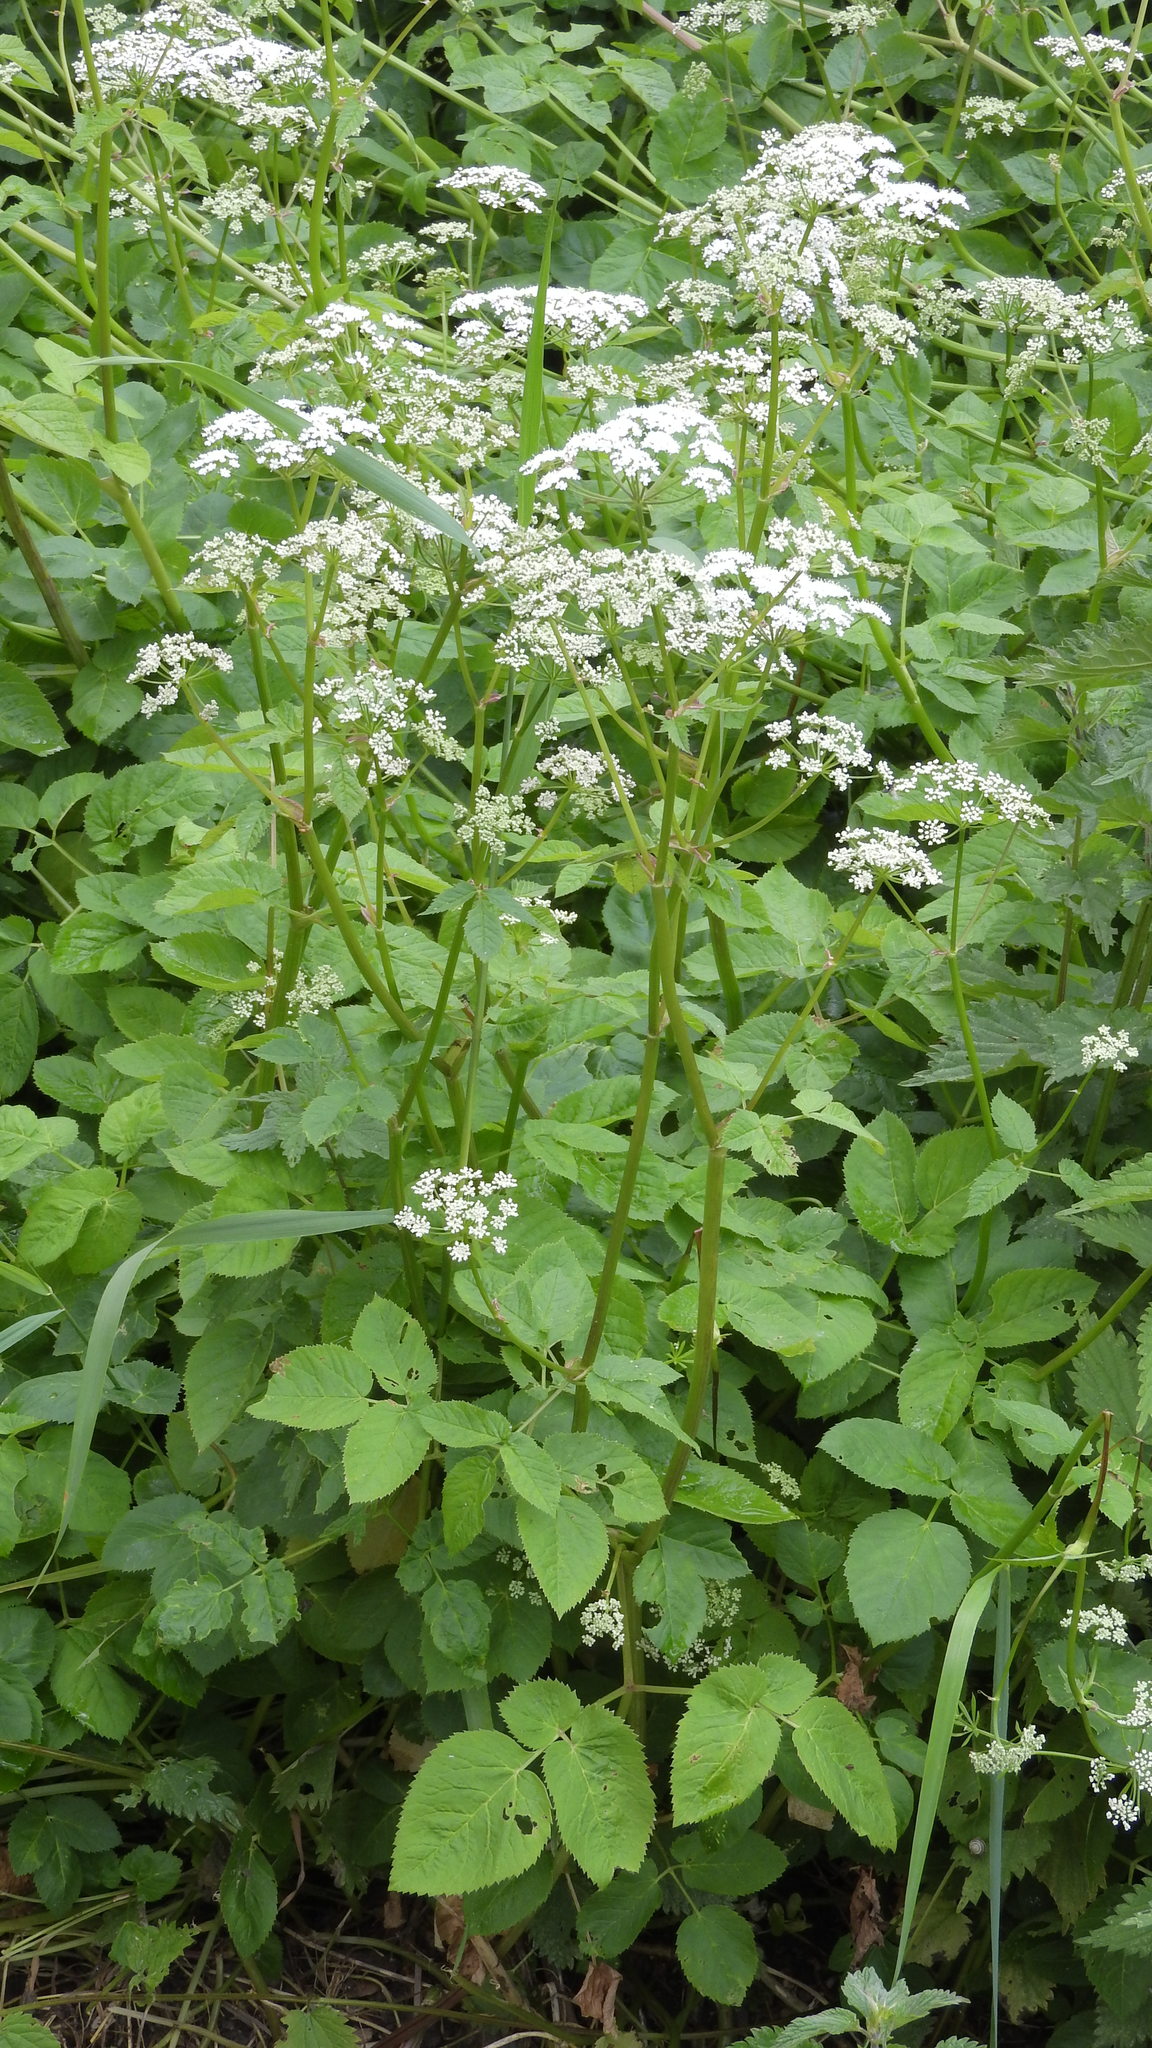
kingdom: Plantae
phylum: Tracheophyta
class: Magnoliopsida
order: Apiales
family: Apiaceae
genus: Aegopodium
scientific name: Aegopodium podagraria
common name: Ground-elder
